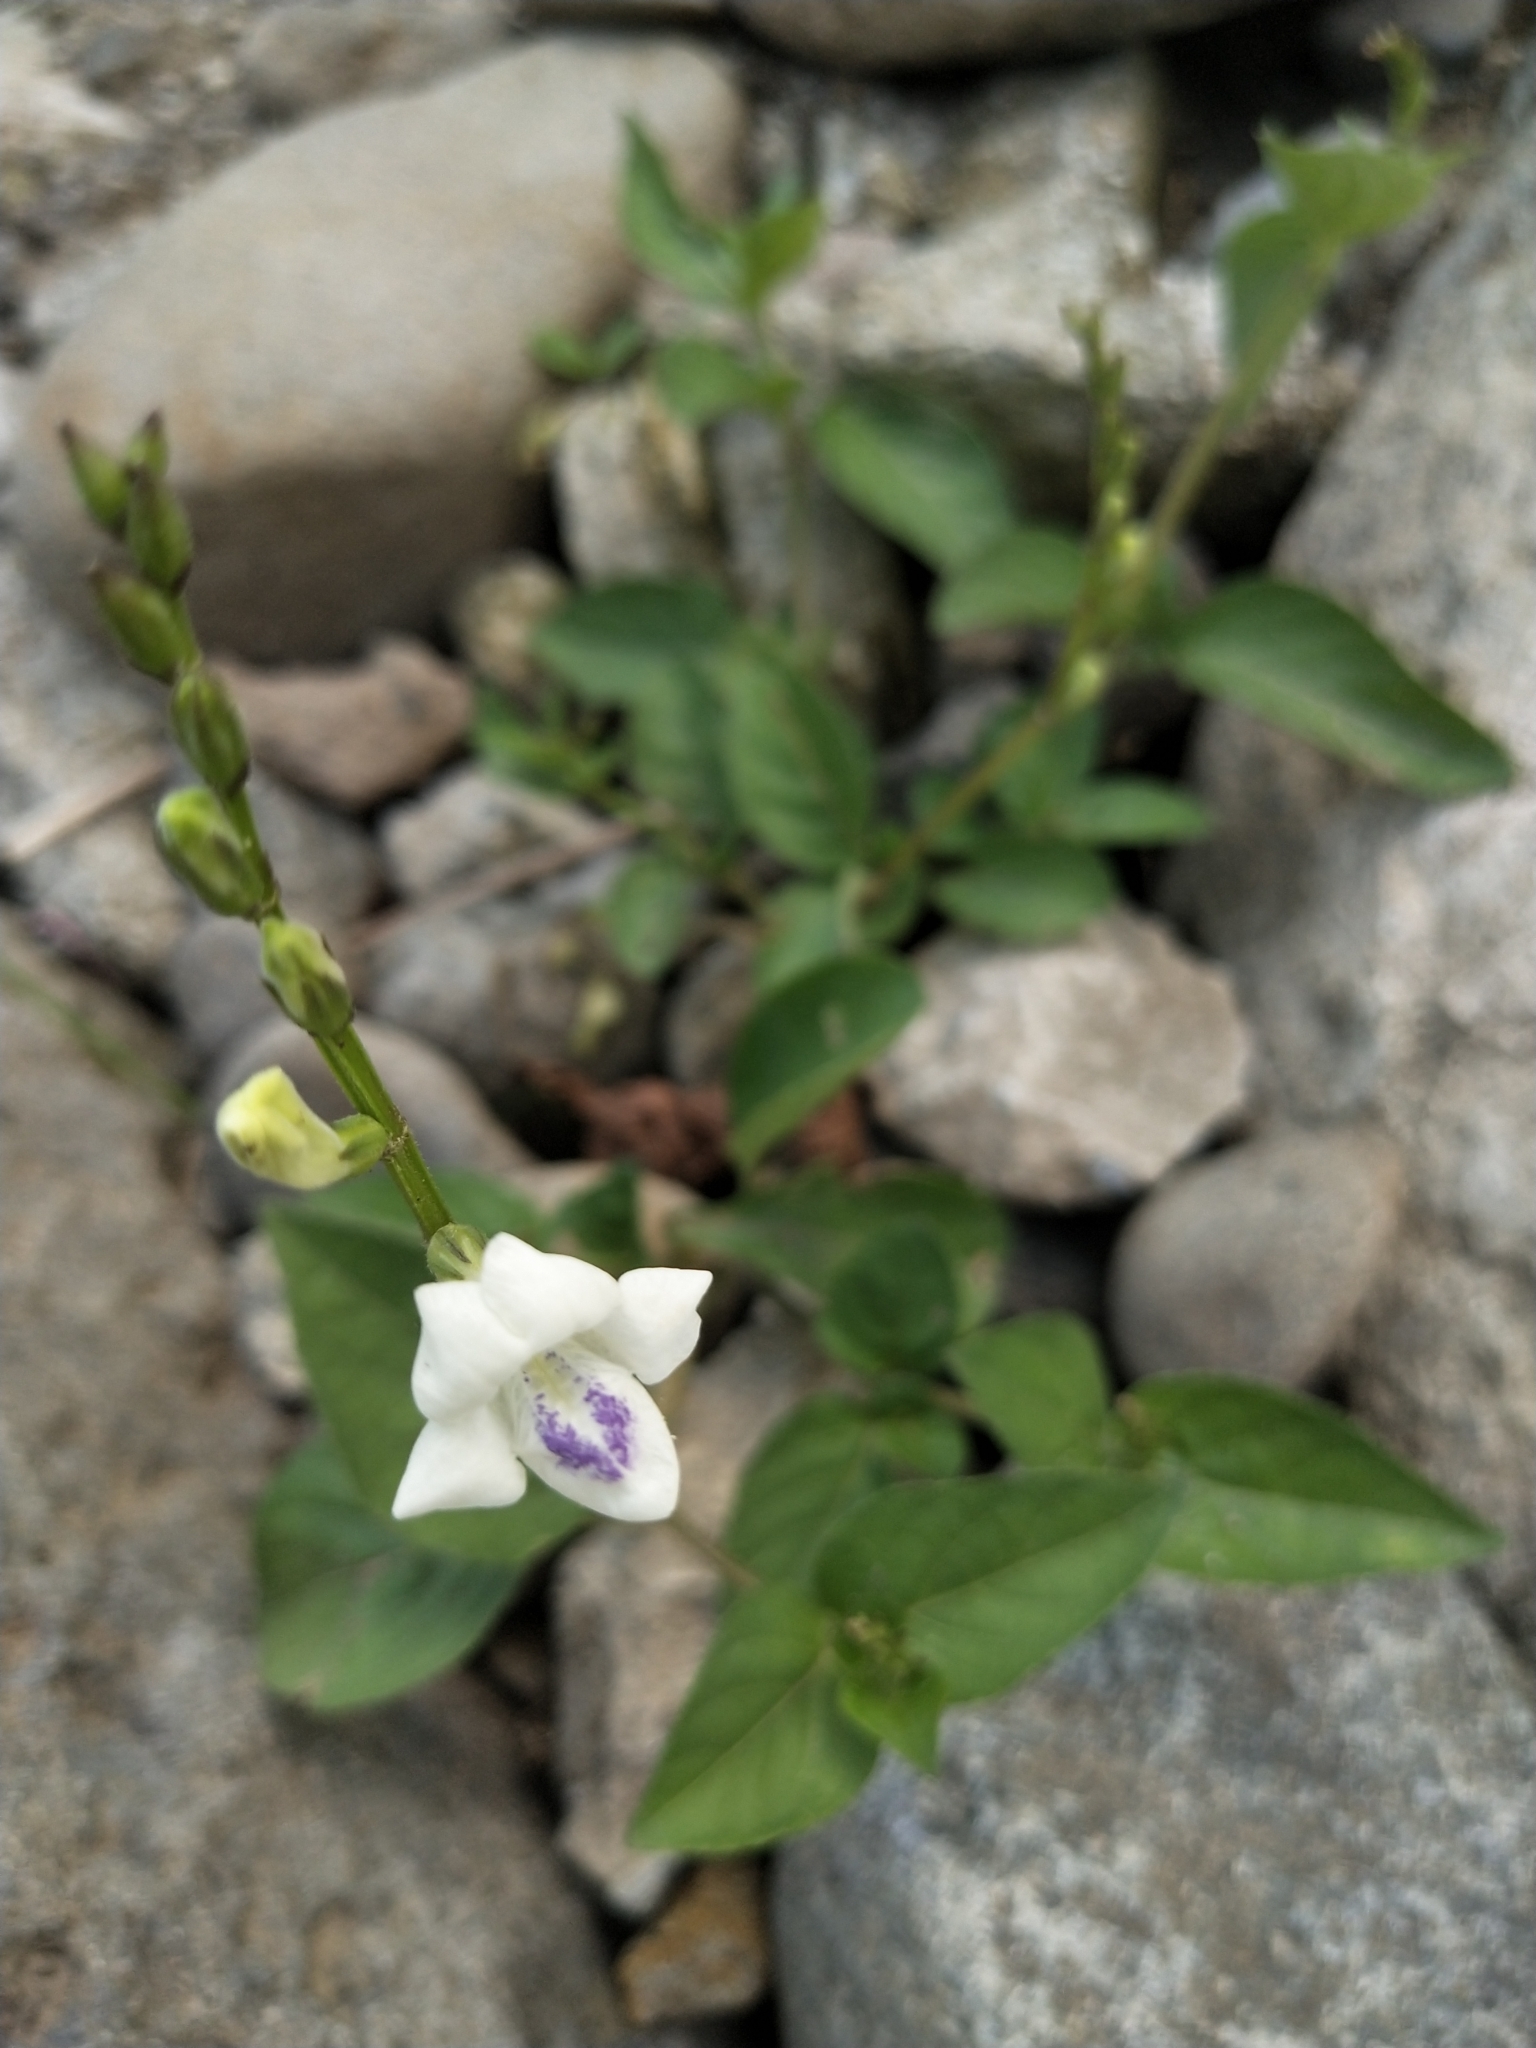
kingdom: Plantae
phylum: Tracheophyta
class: Magnoliopsida
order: Lamiales
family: Acanthaceae
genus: Asystasia
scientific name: Asystasia intrusa
